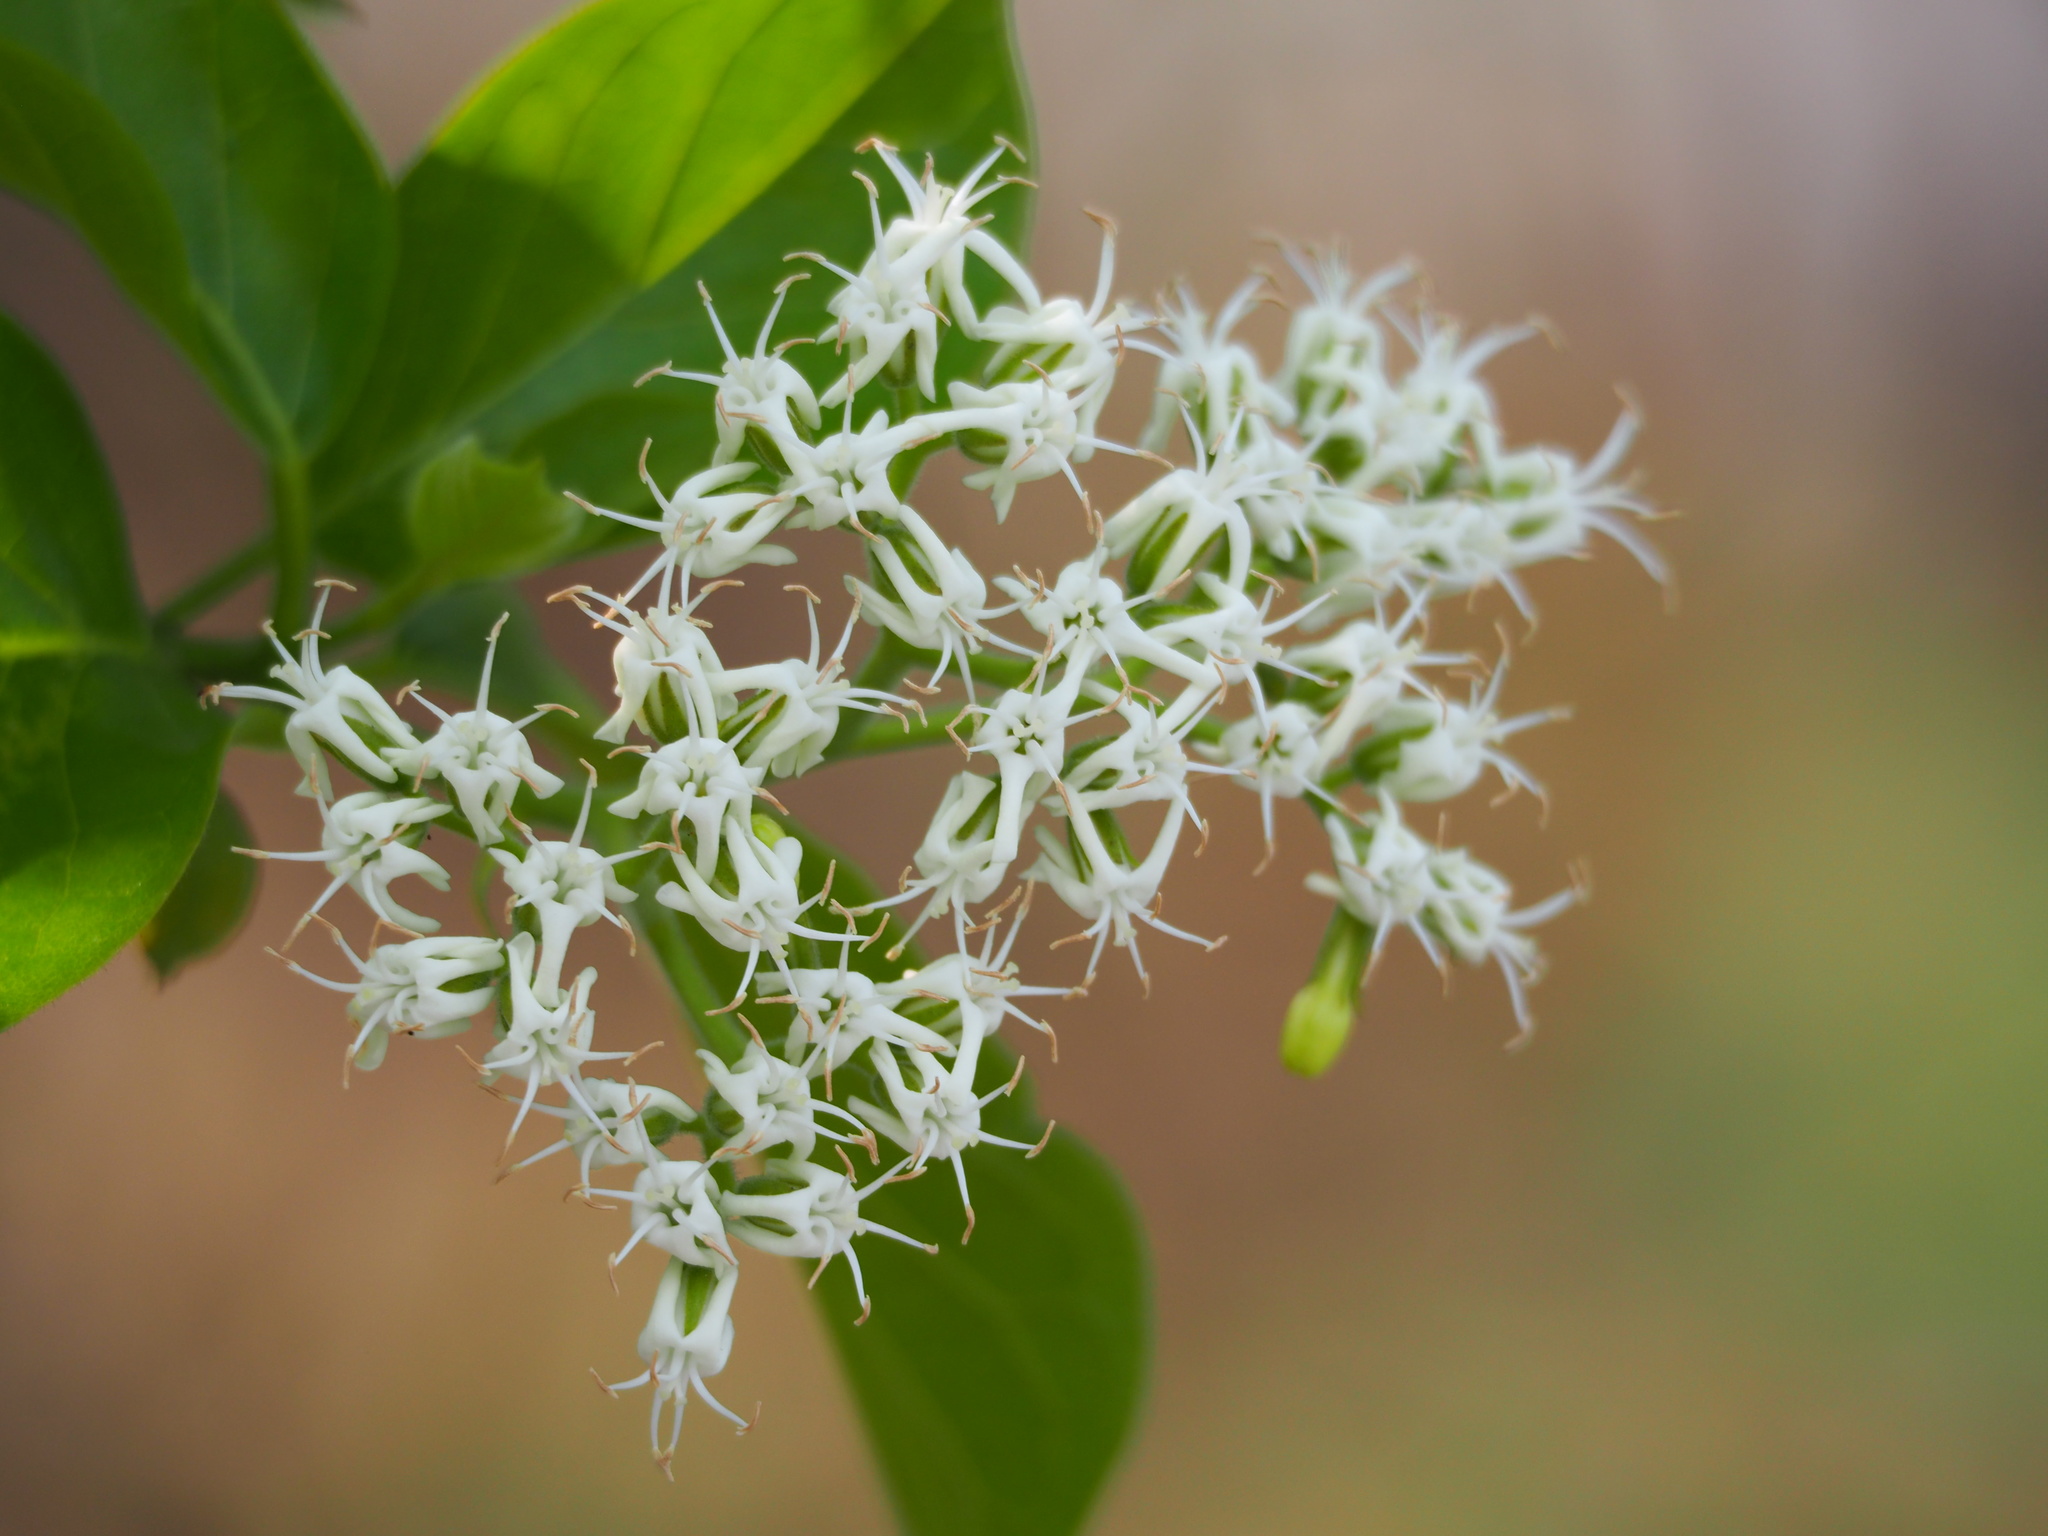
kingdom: Plantae
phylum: Tracheophyta
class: Magnoliopsida
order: Boraginales
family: Ehretiaceae
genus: Ehretia
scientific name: Ehretia resinosa
